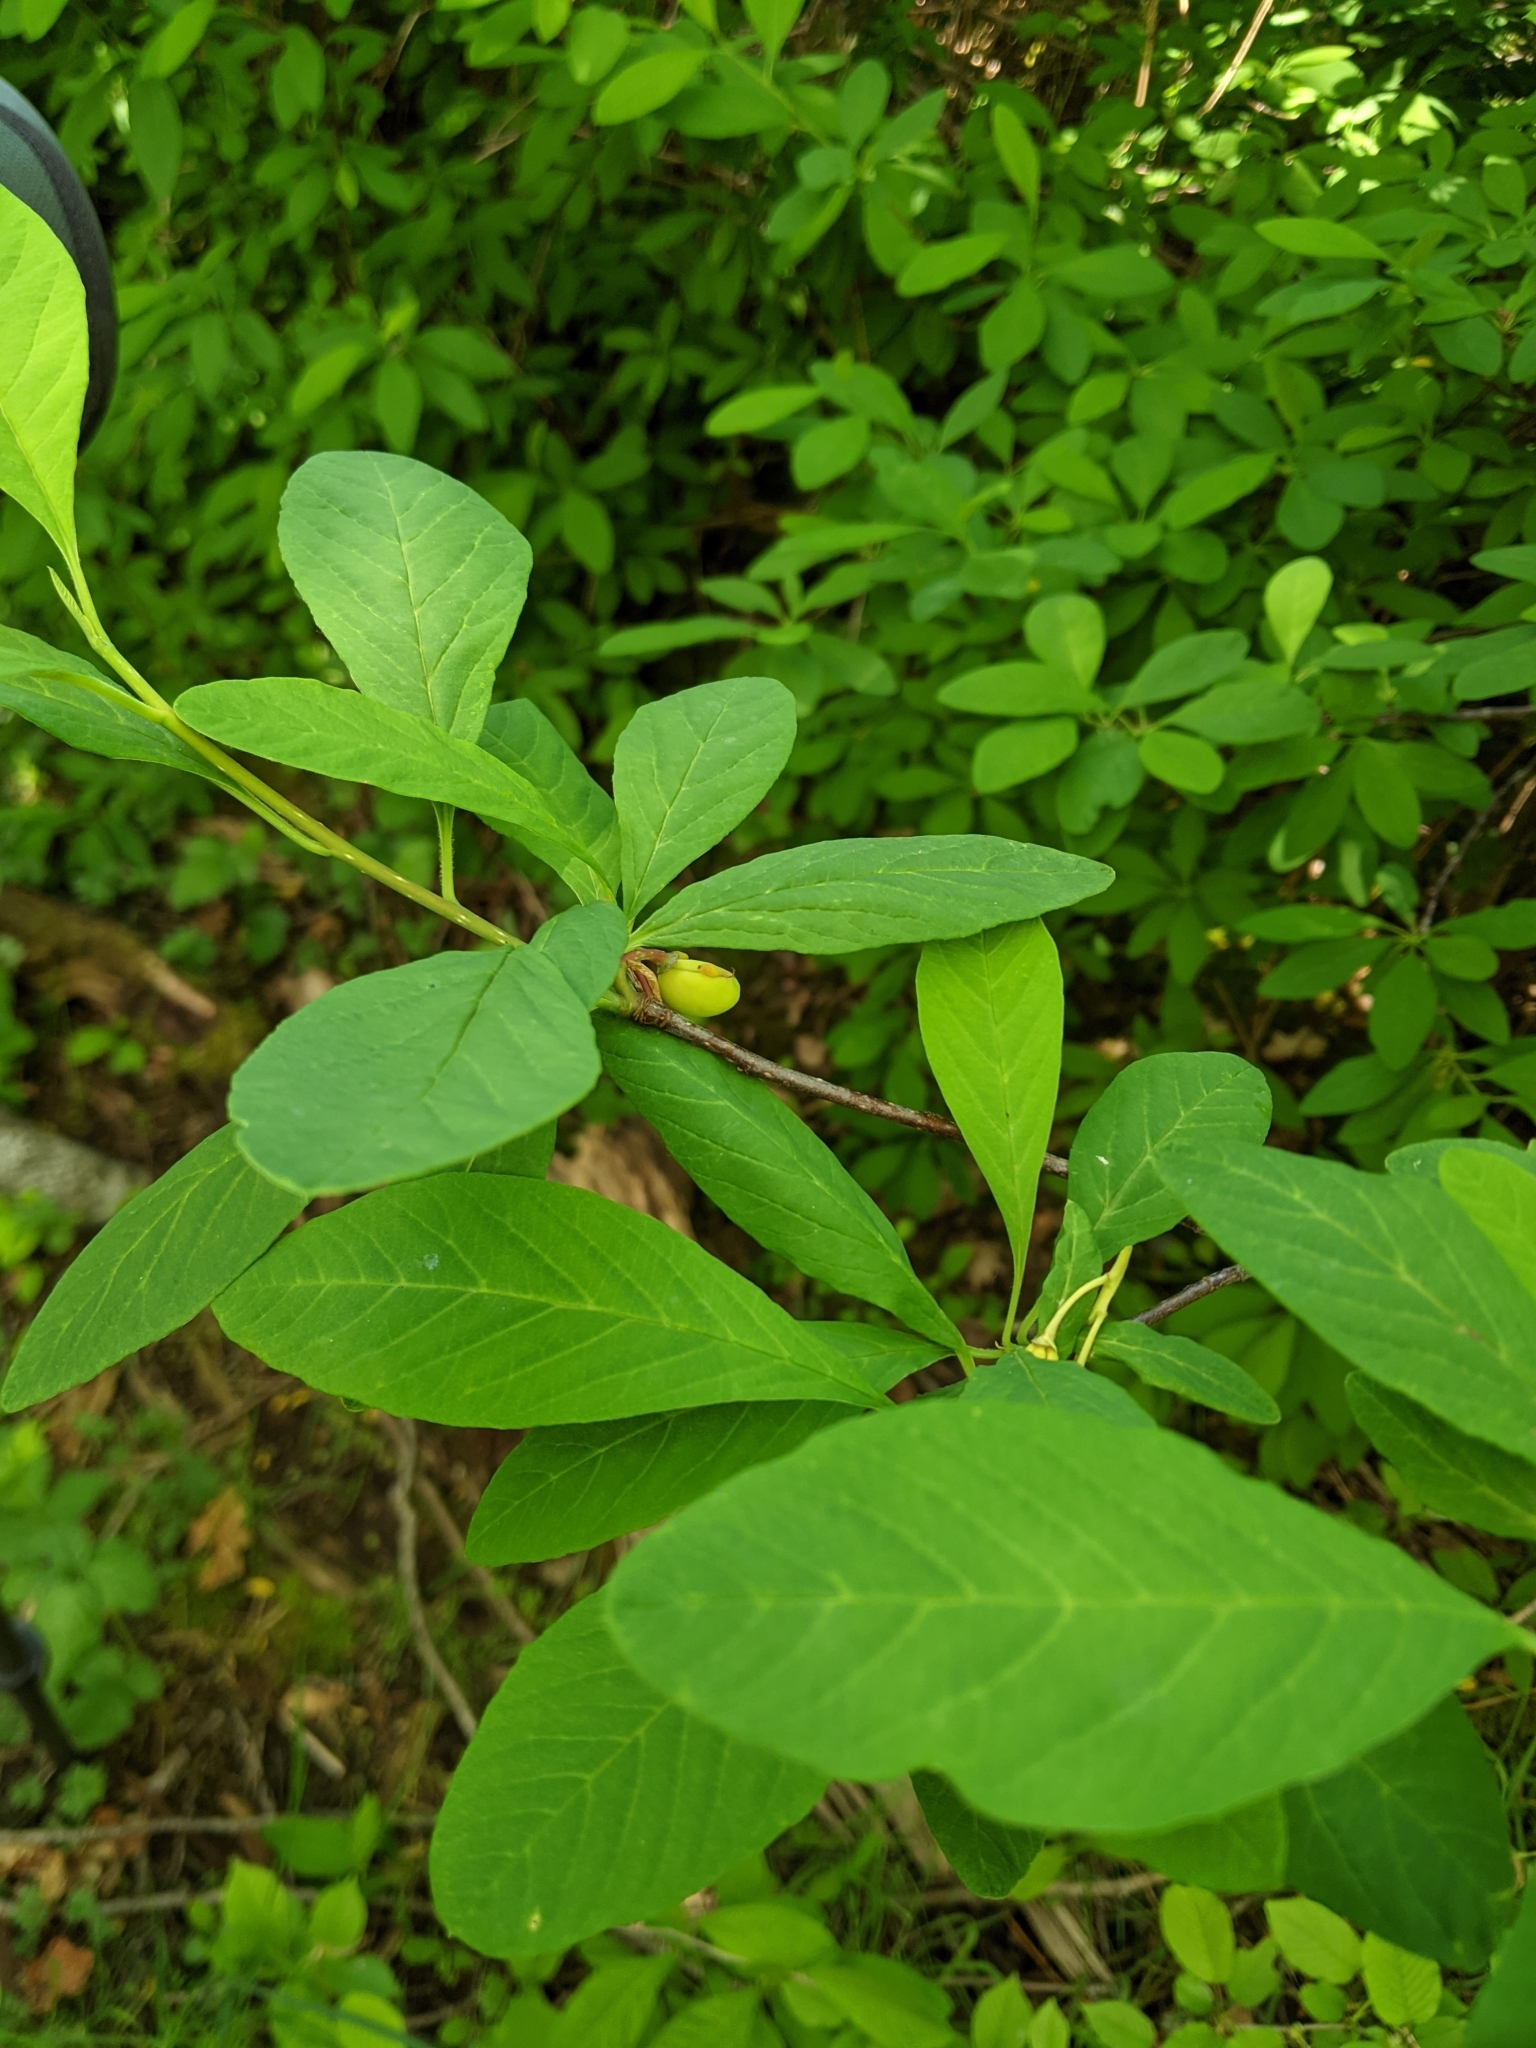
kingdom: Plantae
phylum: Tracheophyta
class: Magnoliopsida
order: Rosales
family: Rosaceae
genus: Oemleria
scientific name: Oemleria cerasiformis
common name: Osoberry
